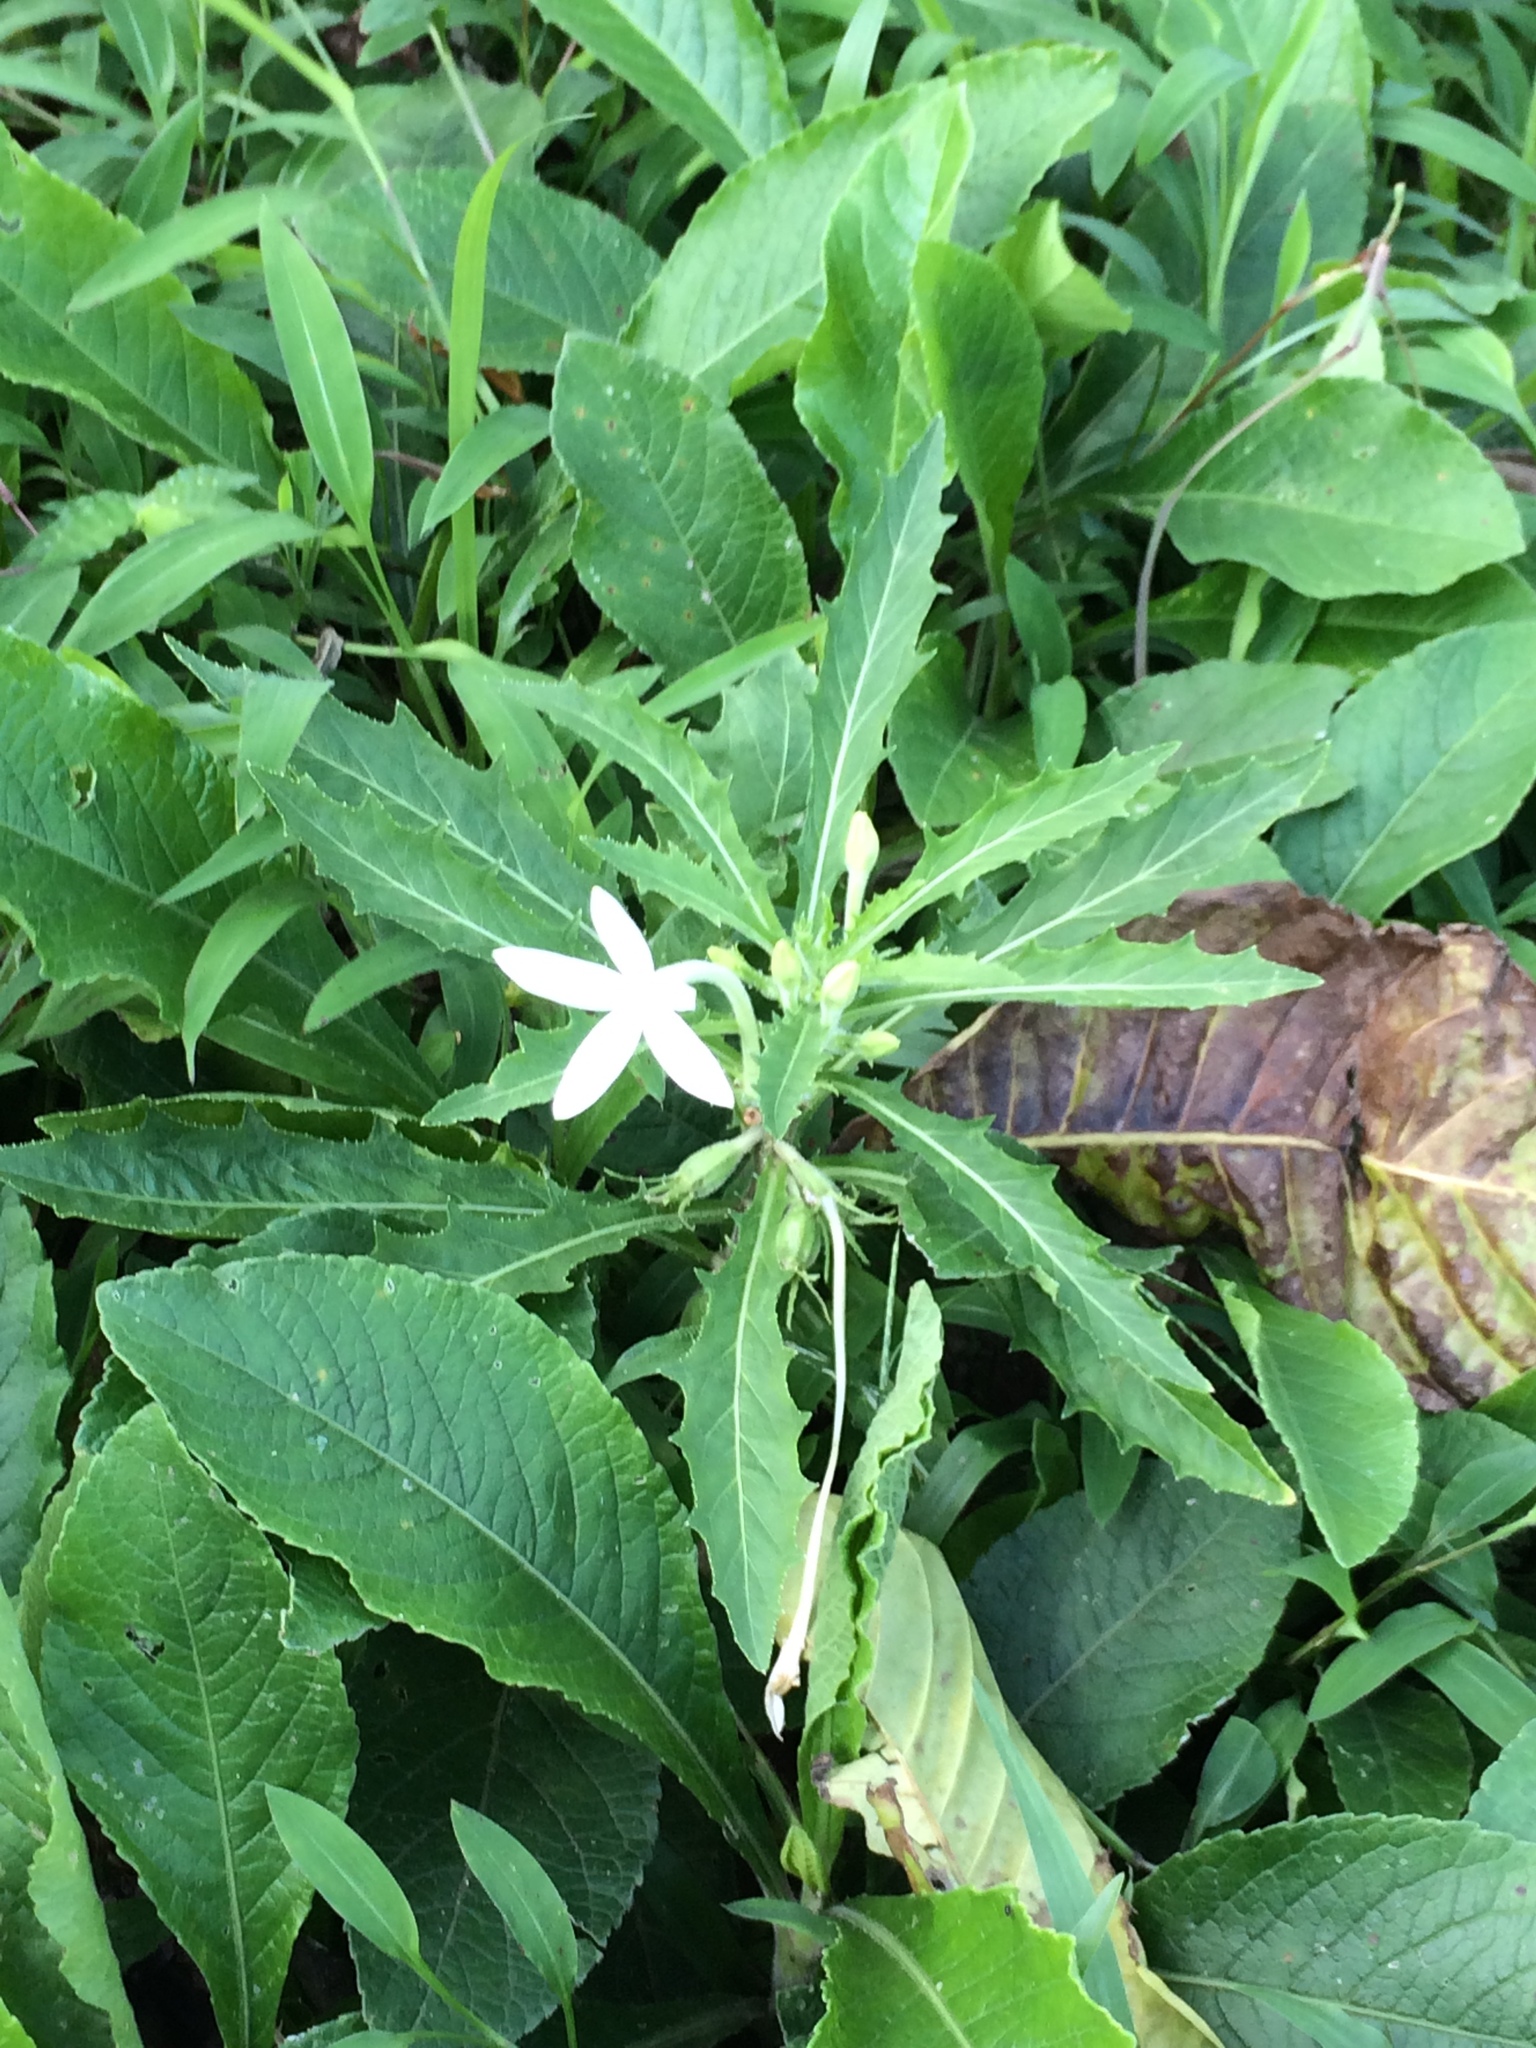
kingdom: Plantae
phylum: Tracheophyta
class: Magnoliopsida
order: Asterales
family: Campanulaceae
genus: Hippobroma
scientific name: Hippobroma longiflora
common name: Madamfate
